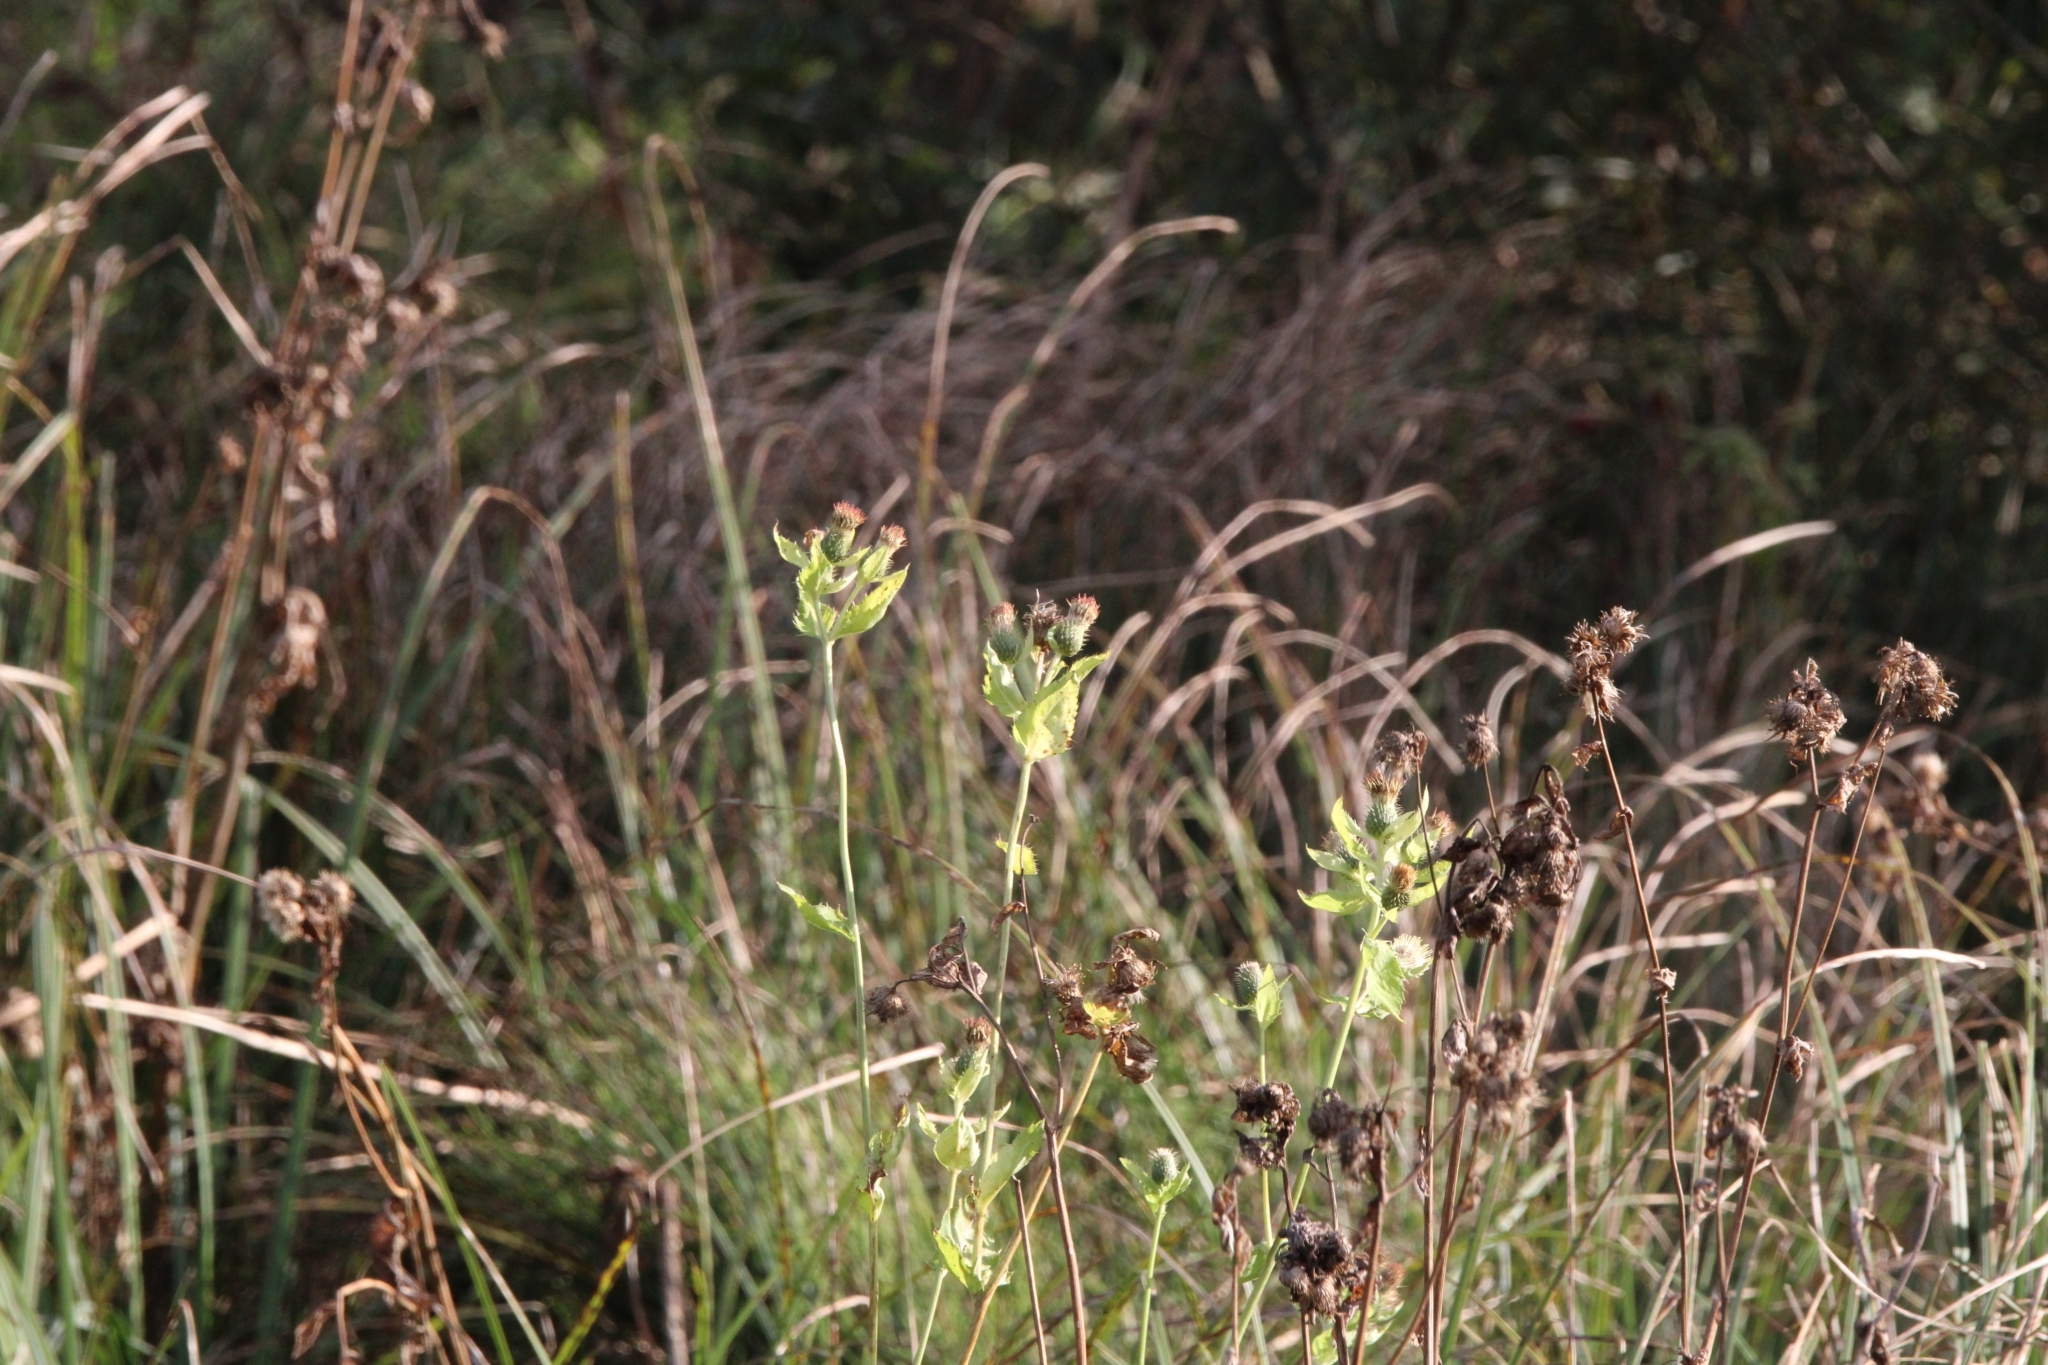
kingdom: Plantae
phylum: Tracheophyta
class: Magnoliopsida
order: Asterales
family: Asteraceae
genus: Cirsium
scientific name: Cirsium oleraceum
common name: Cabbage thistle
